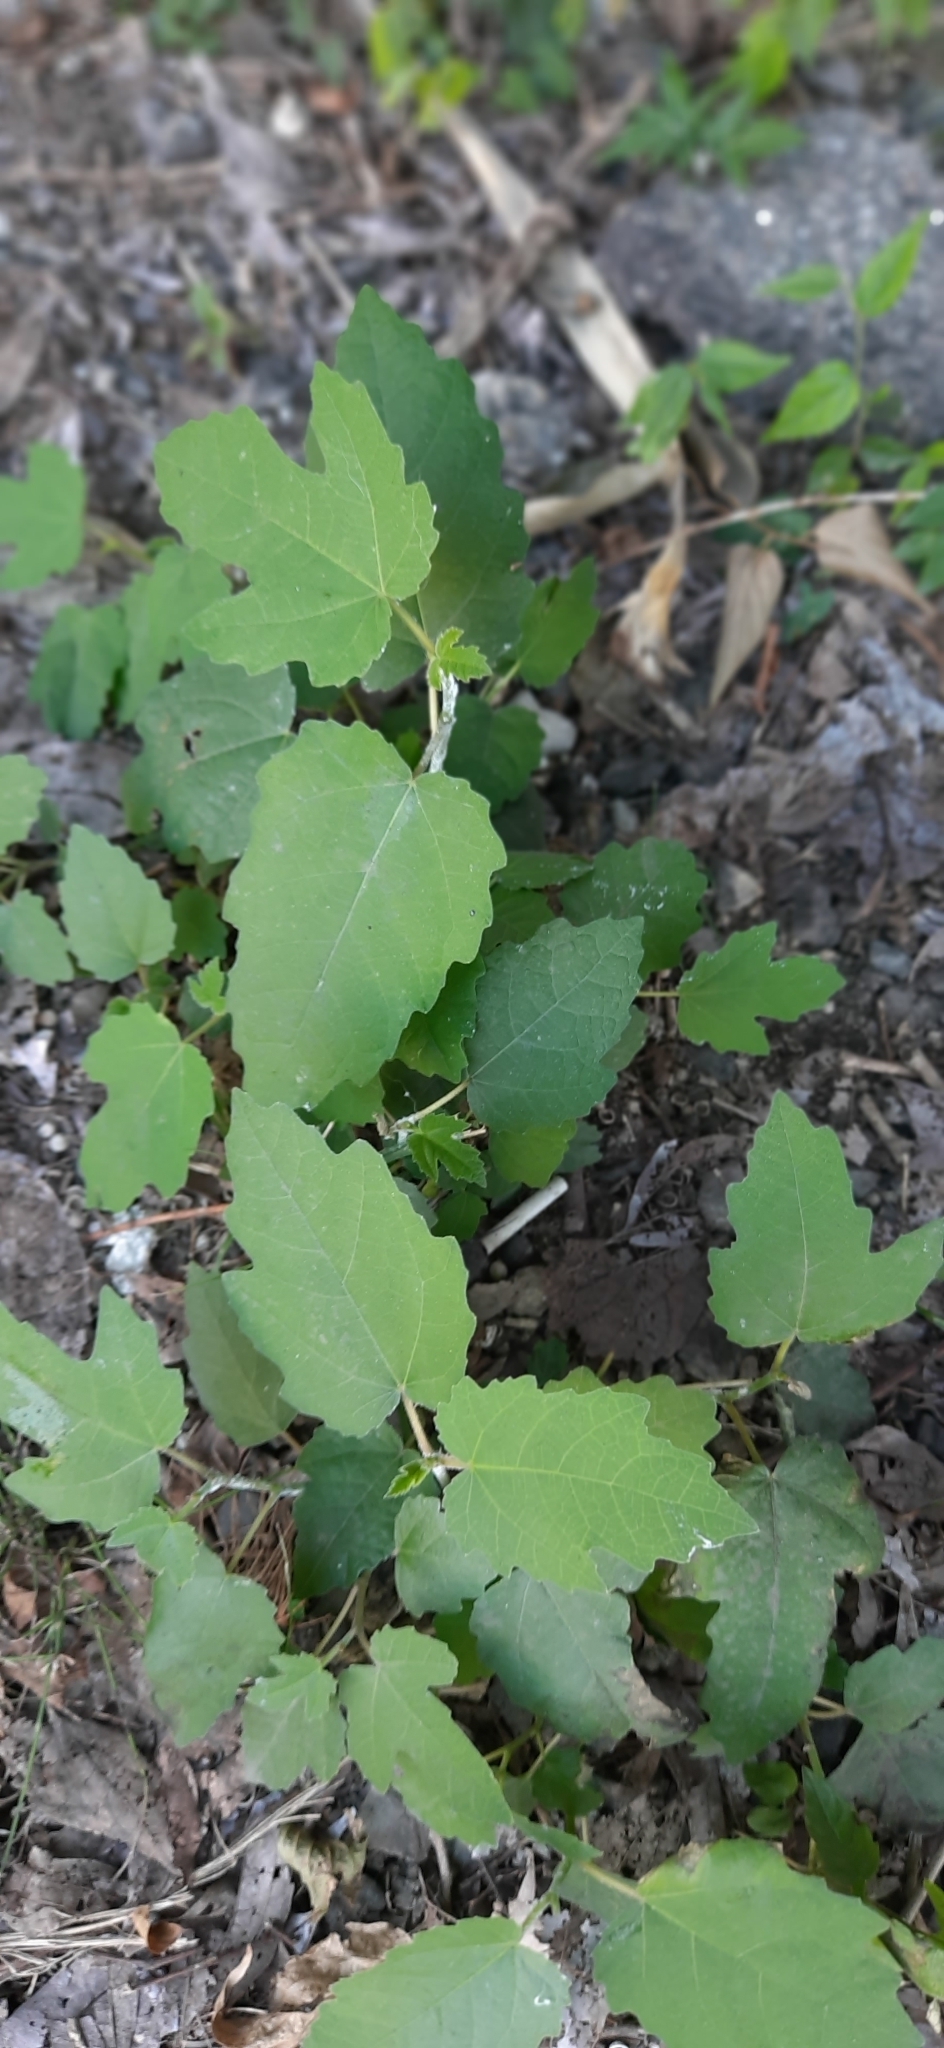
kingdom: Plantae
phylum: Tracheophyta
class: Magnoliopsida
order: Rosales
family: Moraceae
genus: Ficus
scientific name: Ficus carica
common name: Fig
